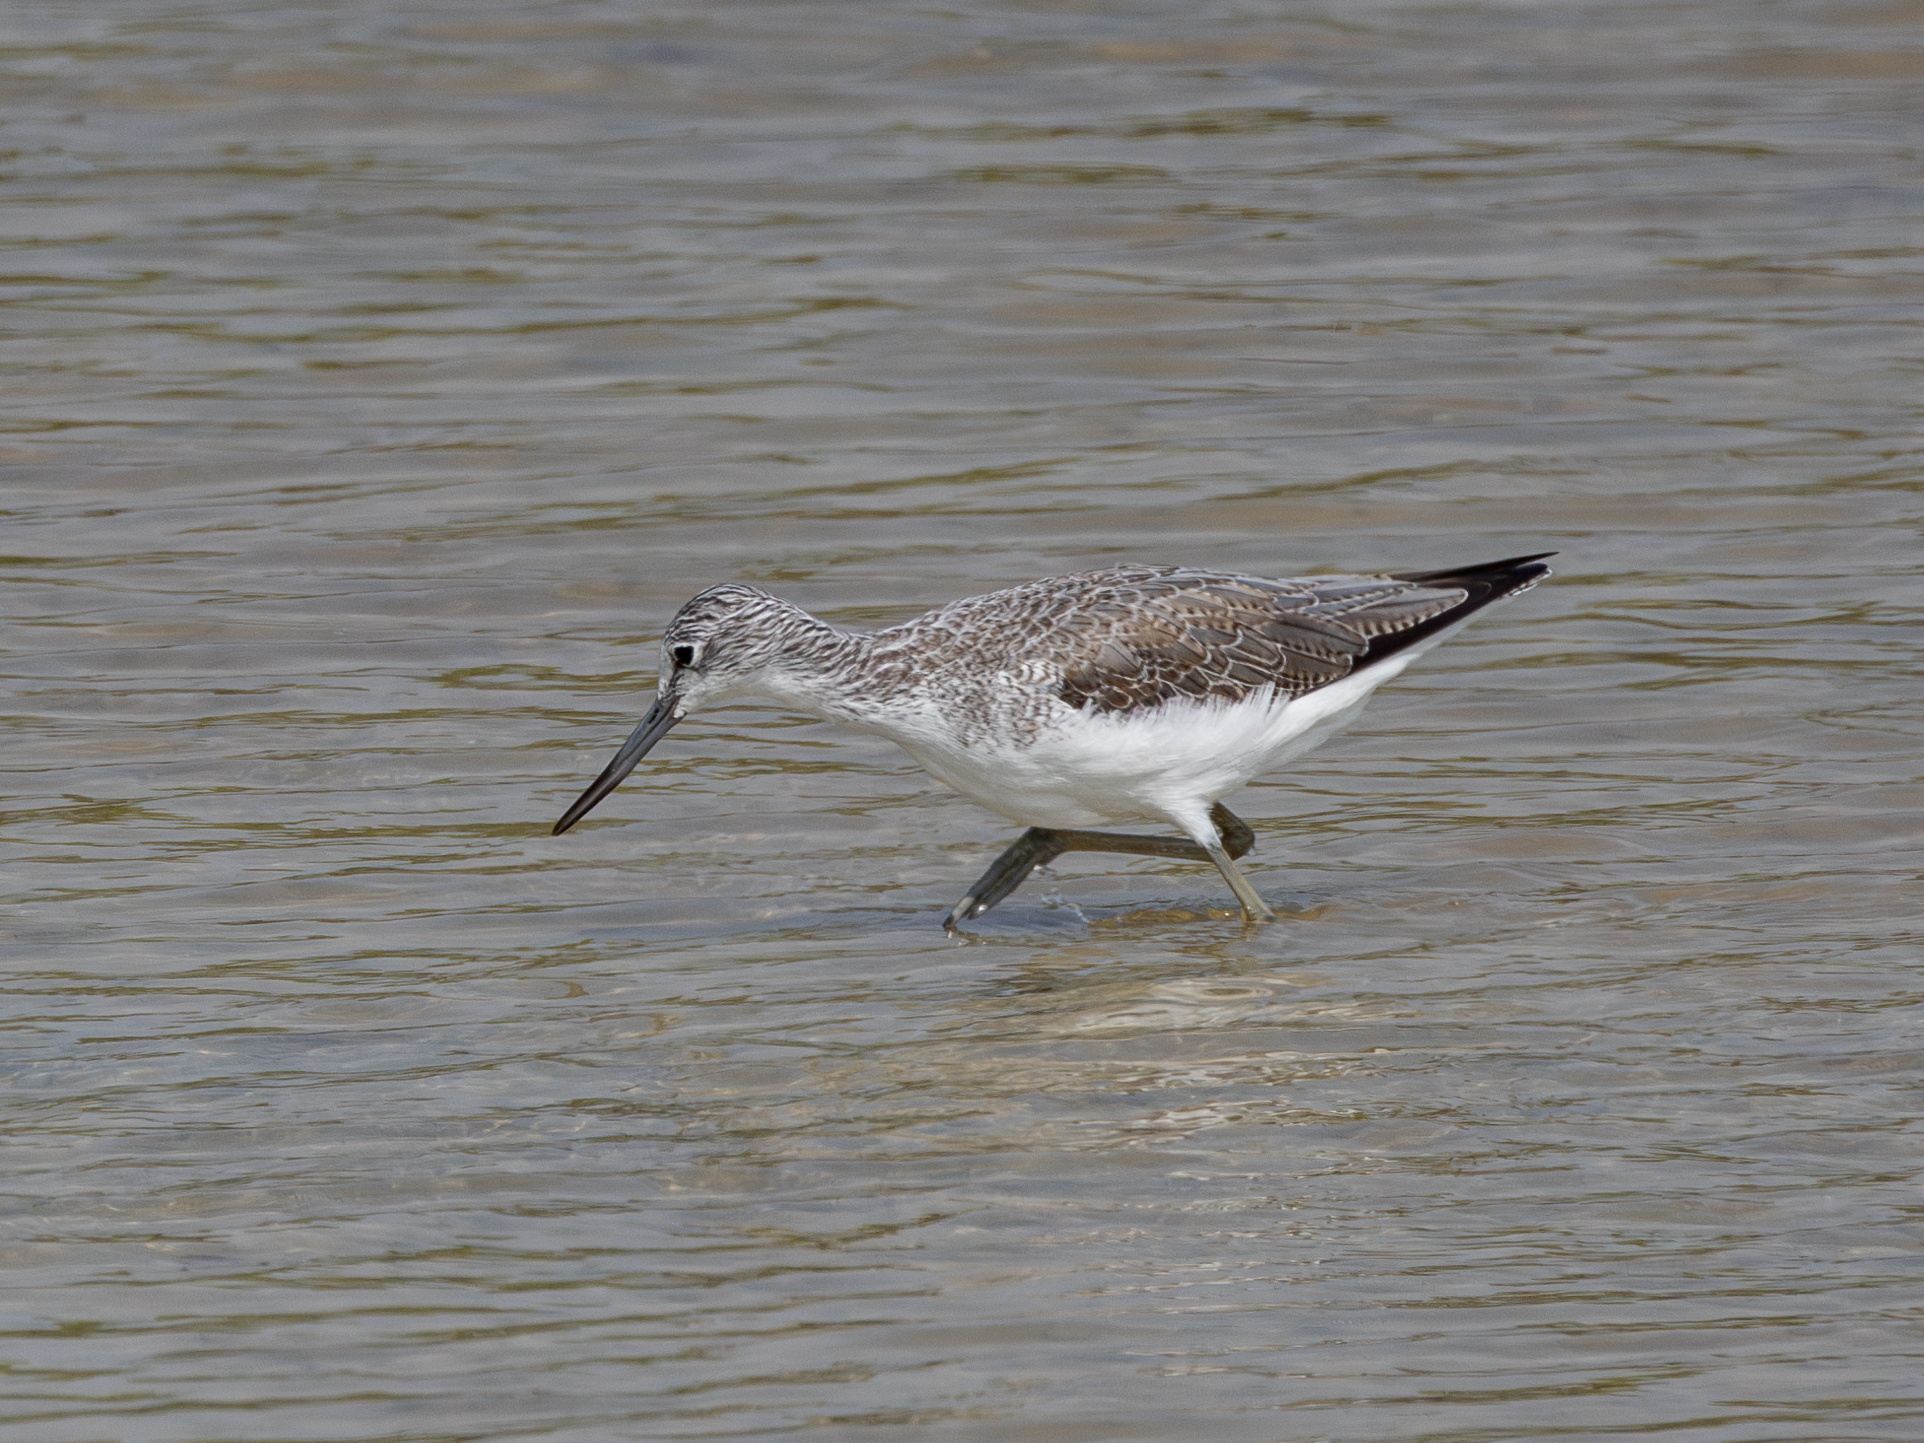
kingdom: Animalia
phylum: Chordata
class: Aves
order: Charadriiformes
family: Scolopacidae
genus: Tringa
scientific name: Tringa nebularia
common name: Common greenshank
